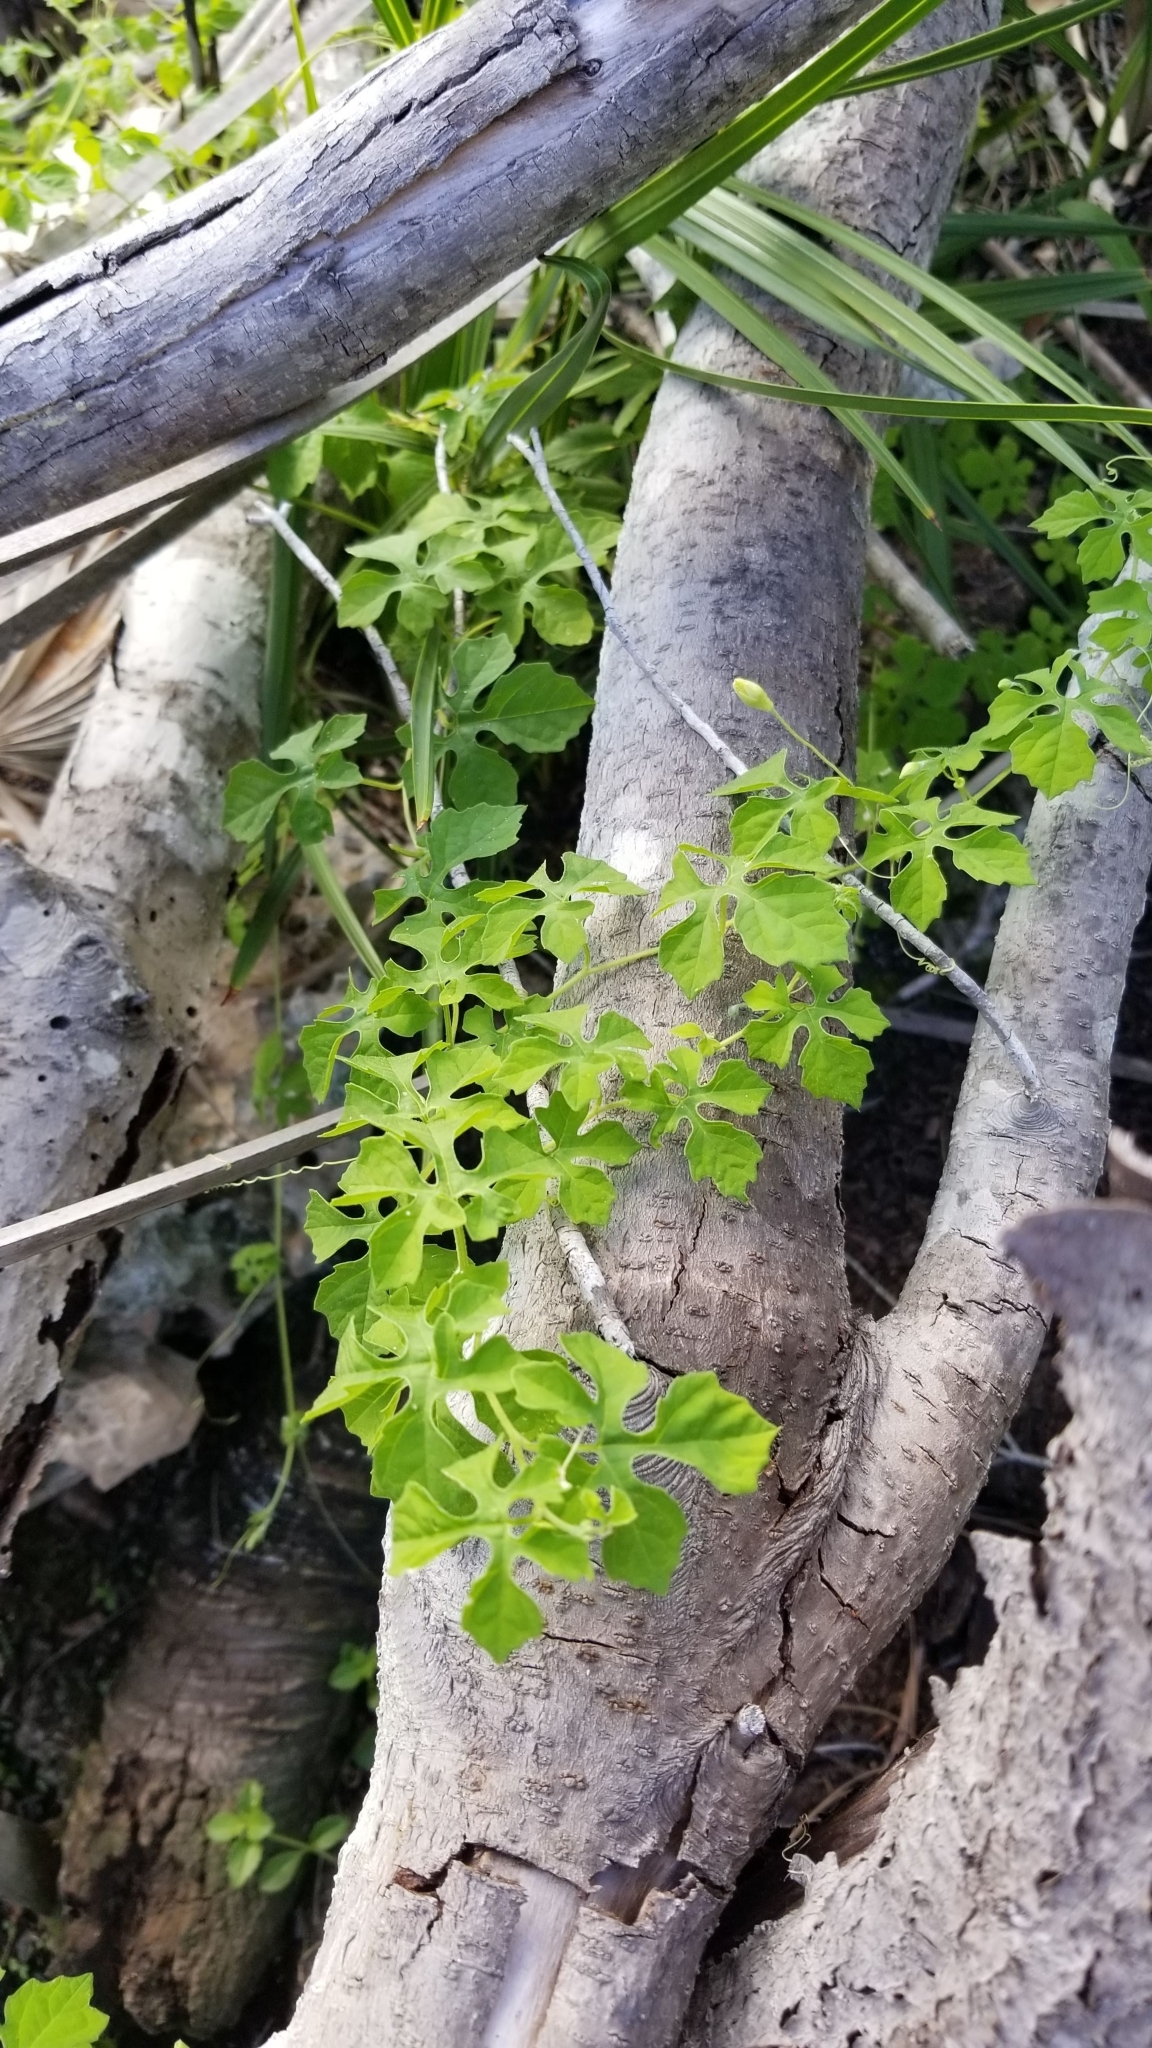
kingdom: Plantae
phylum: Tracheophyta
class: Magnoliopsida
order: Cucurbitales
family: Cucurbitaceae
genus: Momordica
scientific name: Momordica charantia
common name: Balsampear
